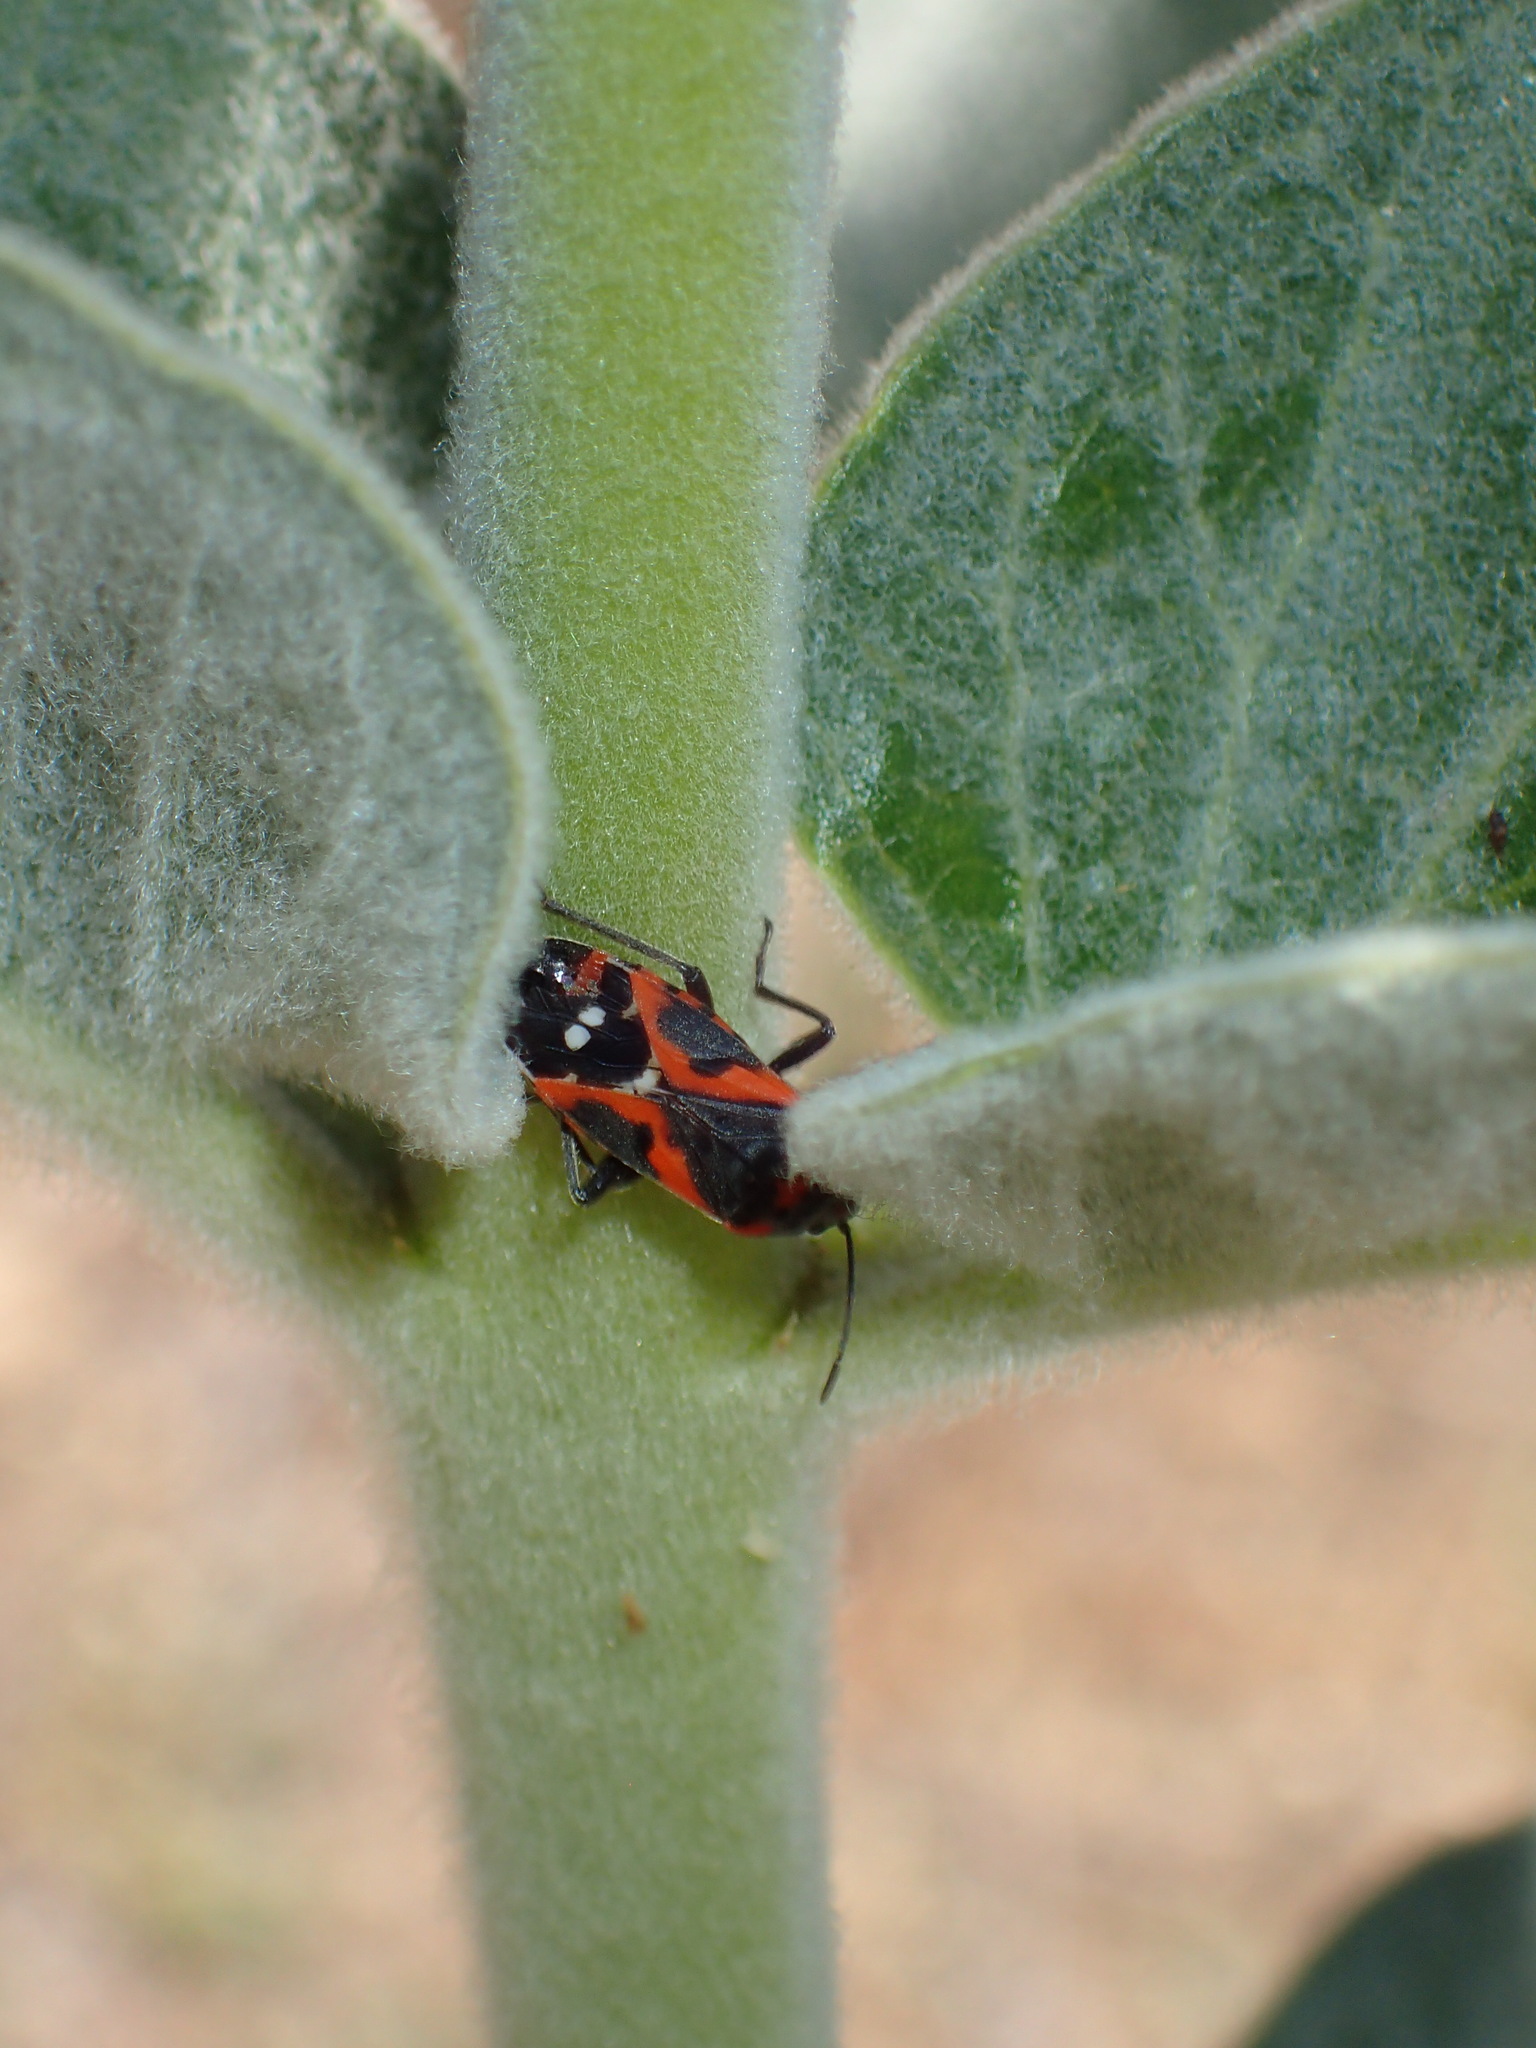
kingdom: Animalia
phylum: Arthropoda
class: Insecta
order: Hemiptera
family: Lygaeidae
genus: Lygaeus
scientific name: Lygaeus kalmii
